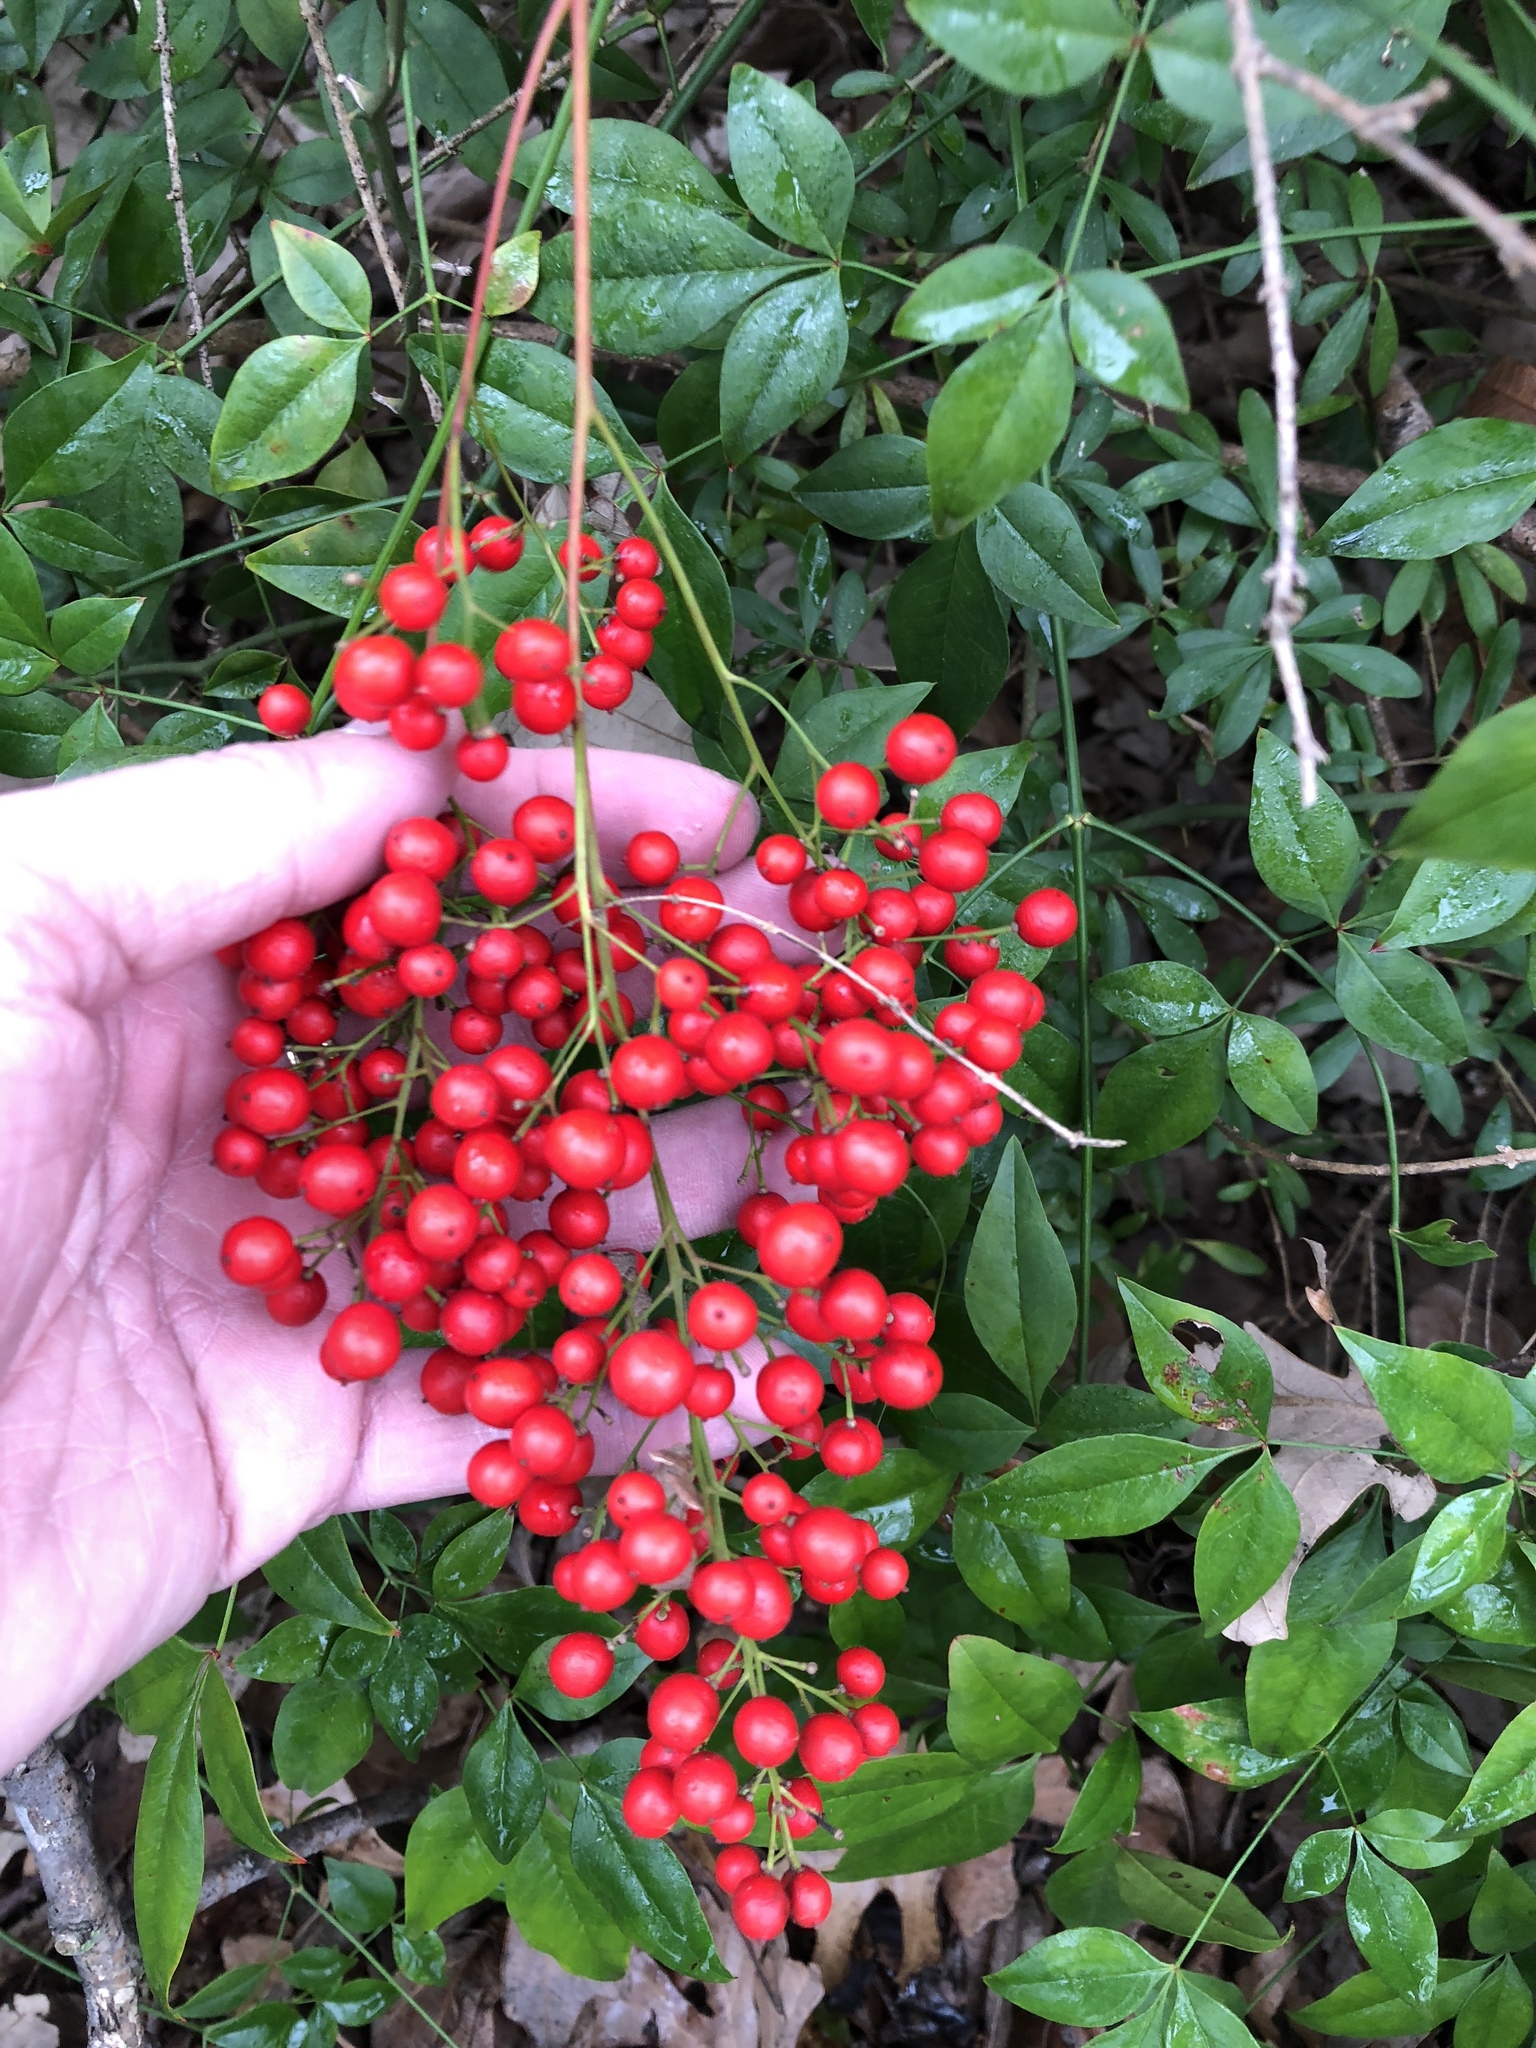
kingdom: Plantae
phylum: Tracheophyta
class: Magnoliopsida
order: Ranunculales
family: Berberidaceae
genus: Nandina
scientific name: Nandina domestica
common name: Sacred bamboo
